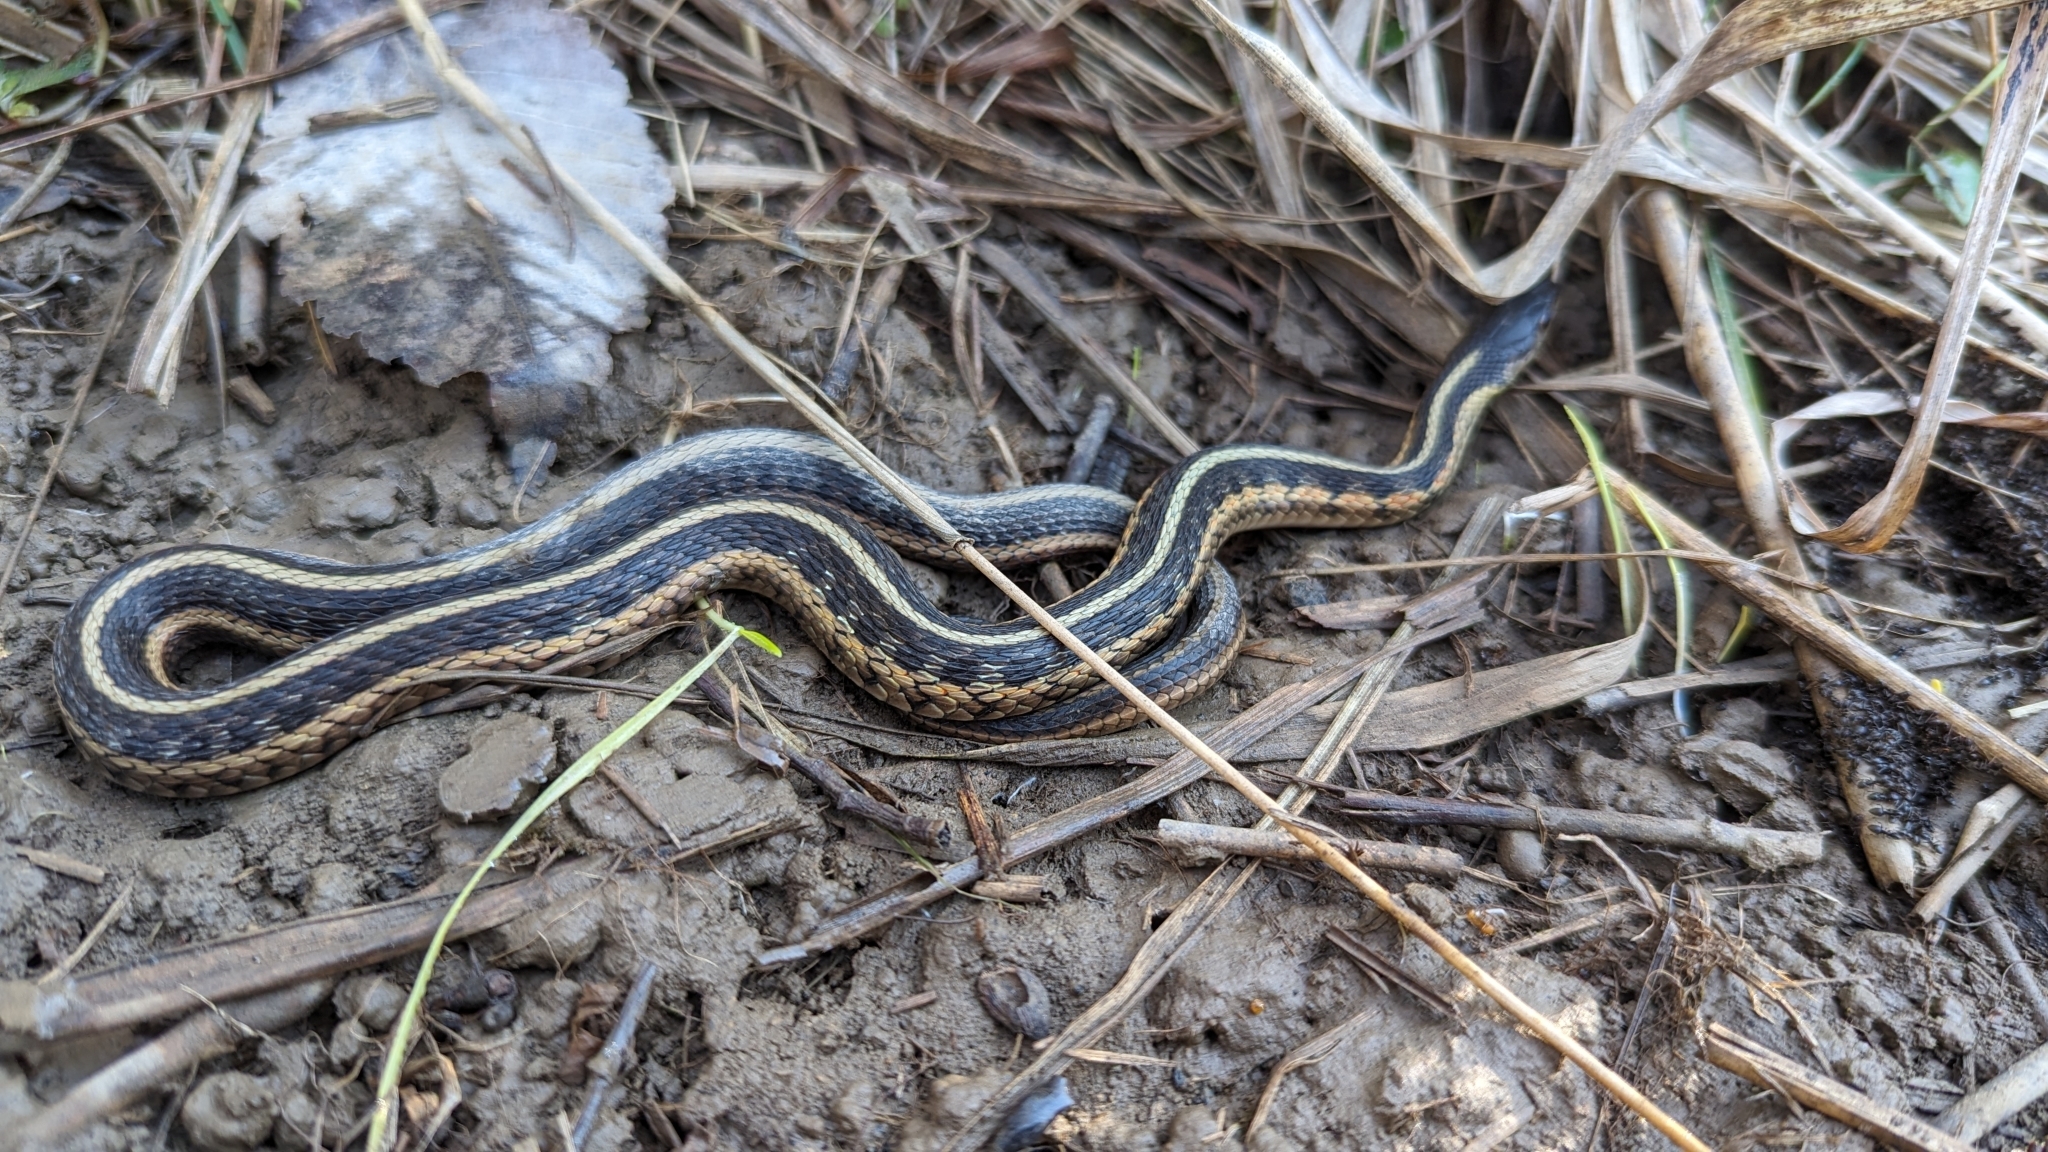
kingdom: Animalia
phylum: Chordata
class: Squamata
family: Colubridae
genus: Thamnophis
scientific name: Thamnophis sirtalis
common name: Common garter snake
